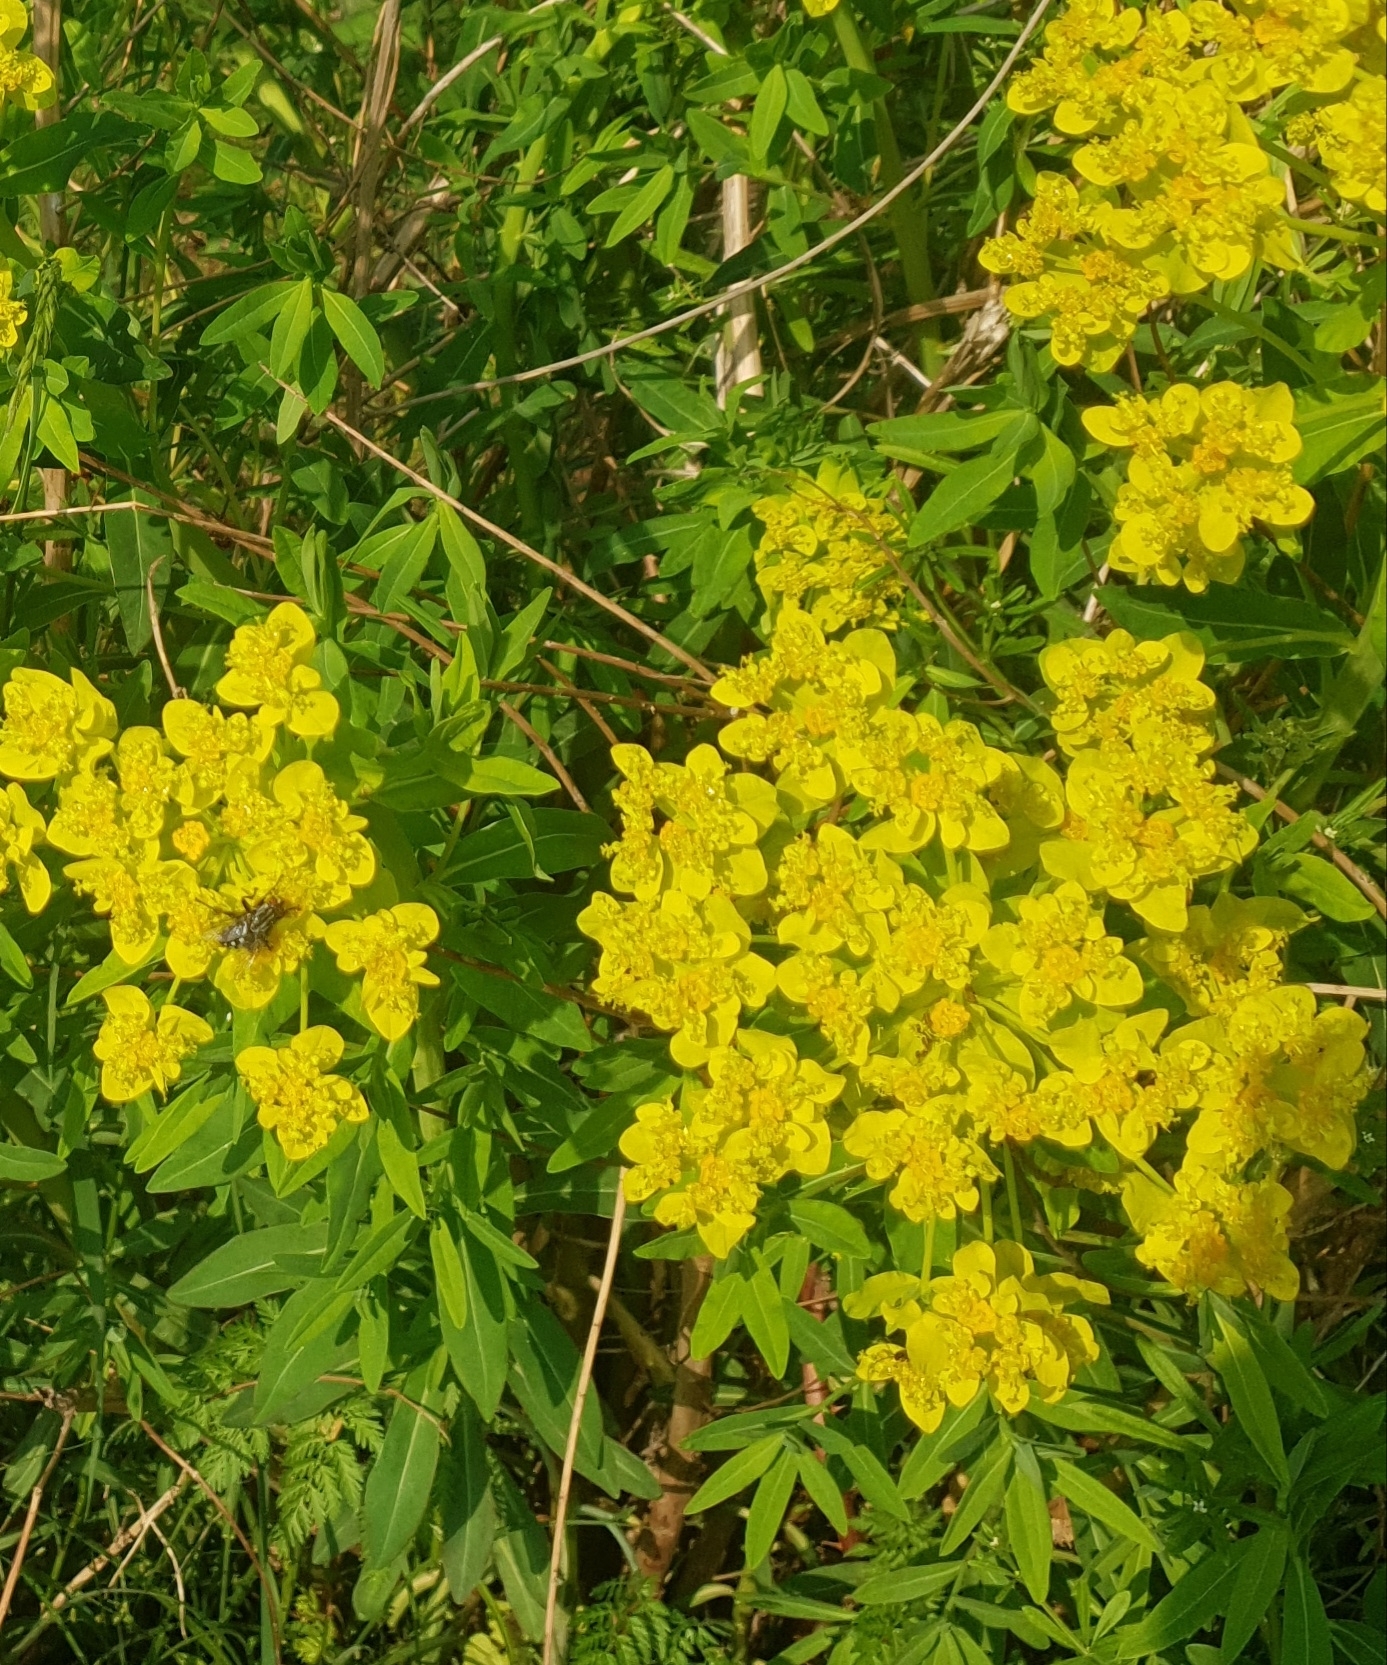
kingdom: Plantae
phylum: Tracheophyta
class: Magnoliopsida
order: Malpighiales
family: Euphorbiaceae
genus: Euphorbia
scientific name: Euphorbia palustris
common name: Marsh spurge
